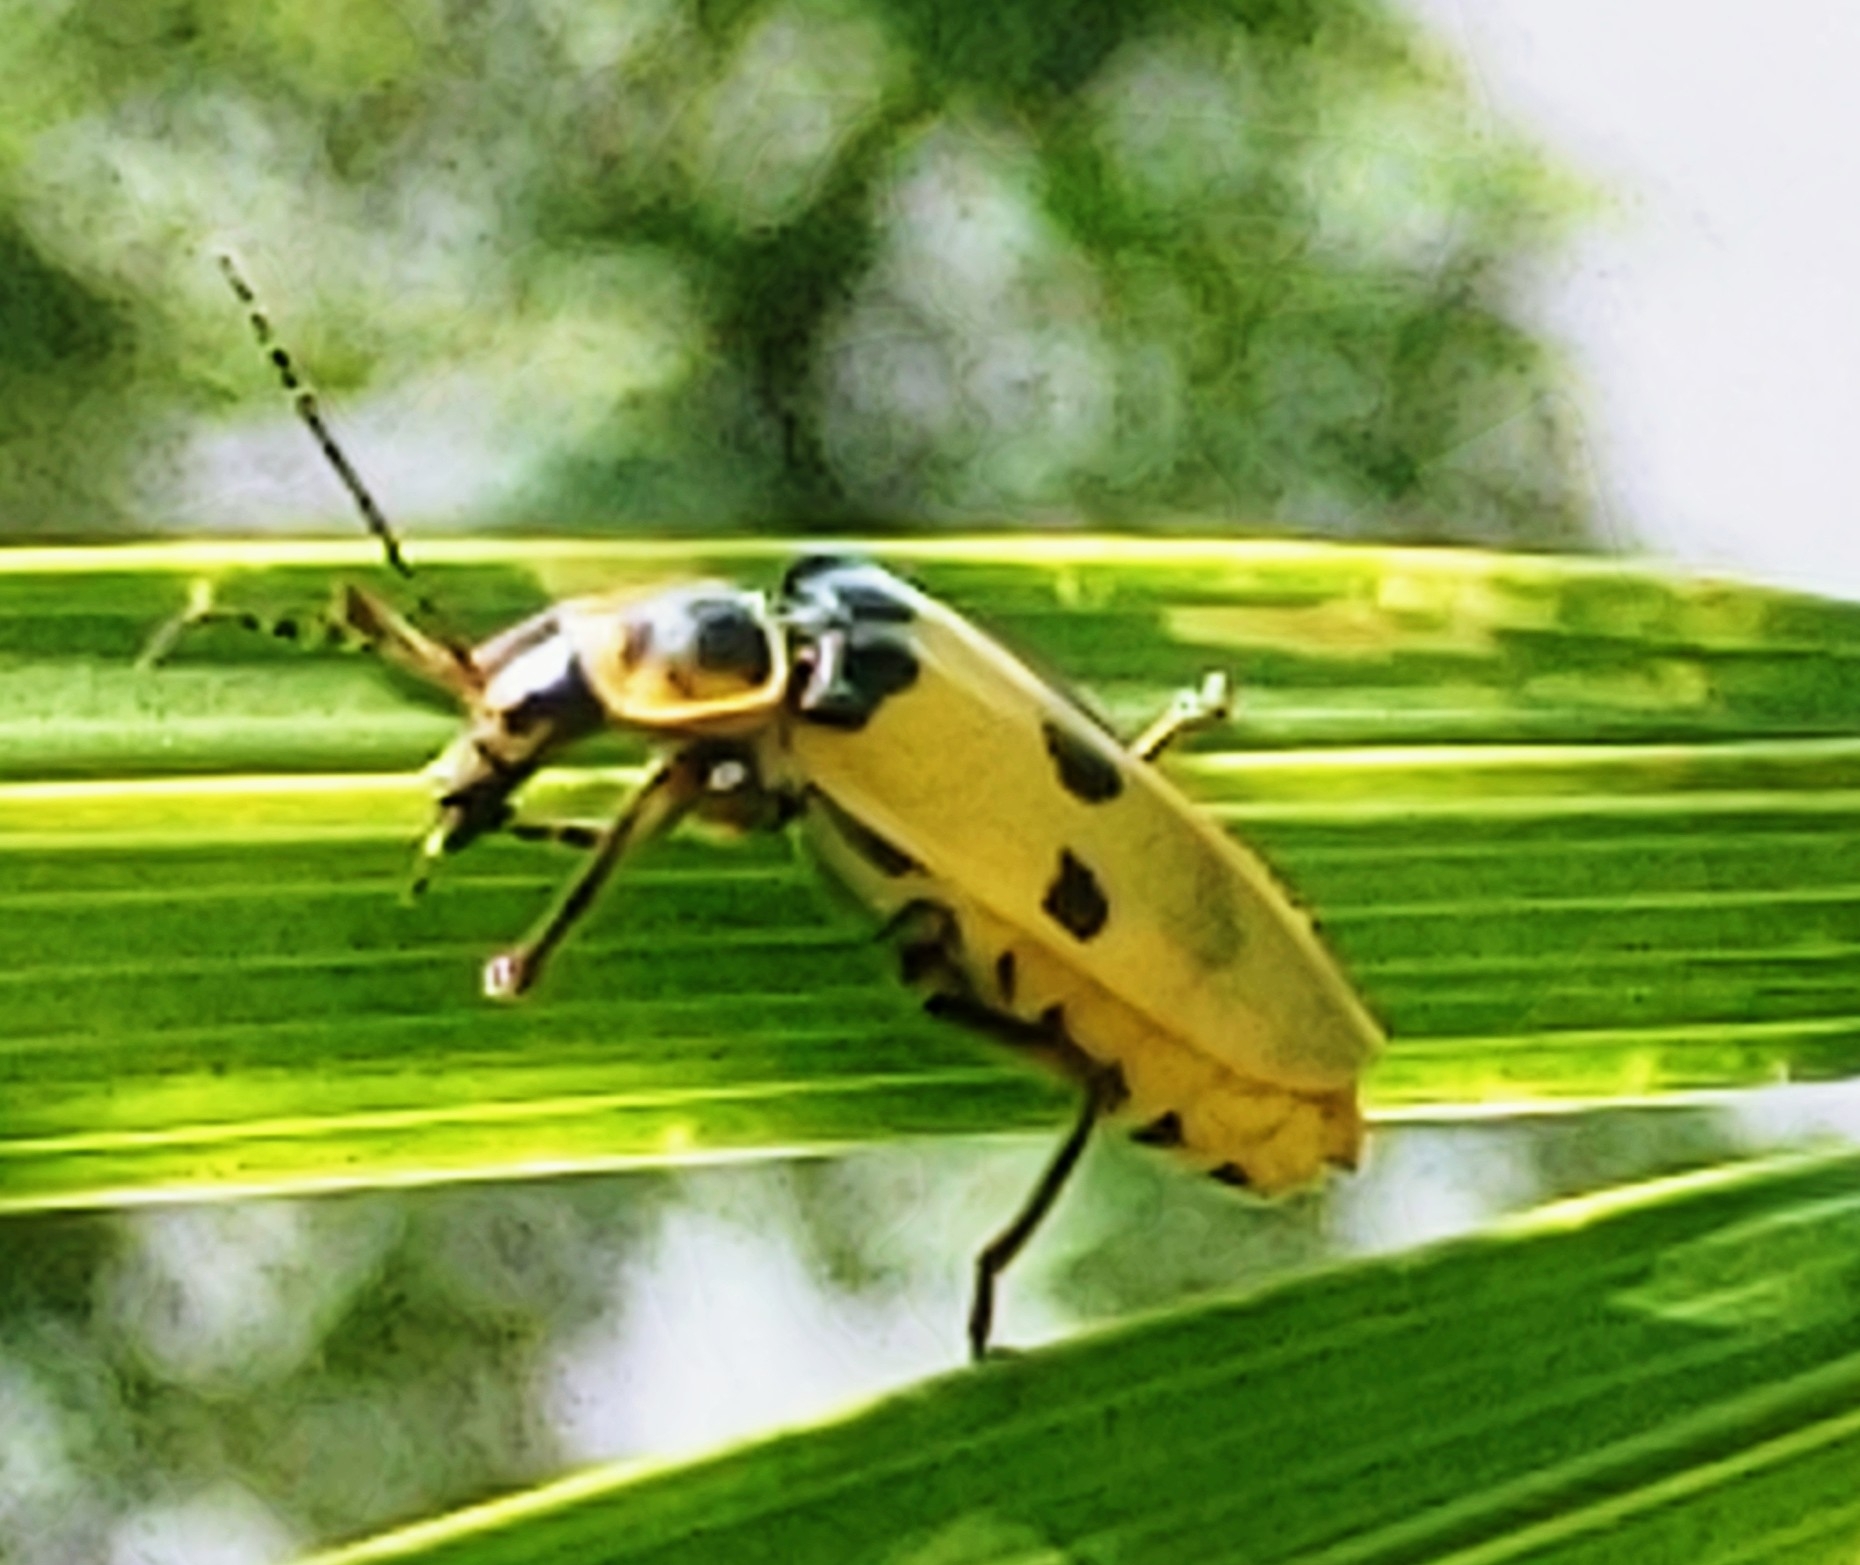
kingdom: Animalia
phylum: Arthropoda
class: Insecta
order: Coleoptera
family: Cantharidae
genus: Chauliognathus
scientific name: Chauliognathus
